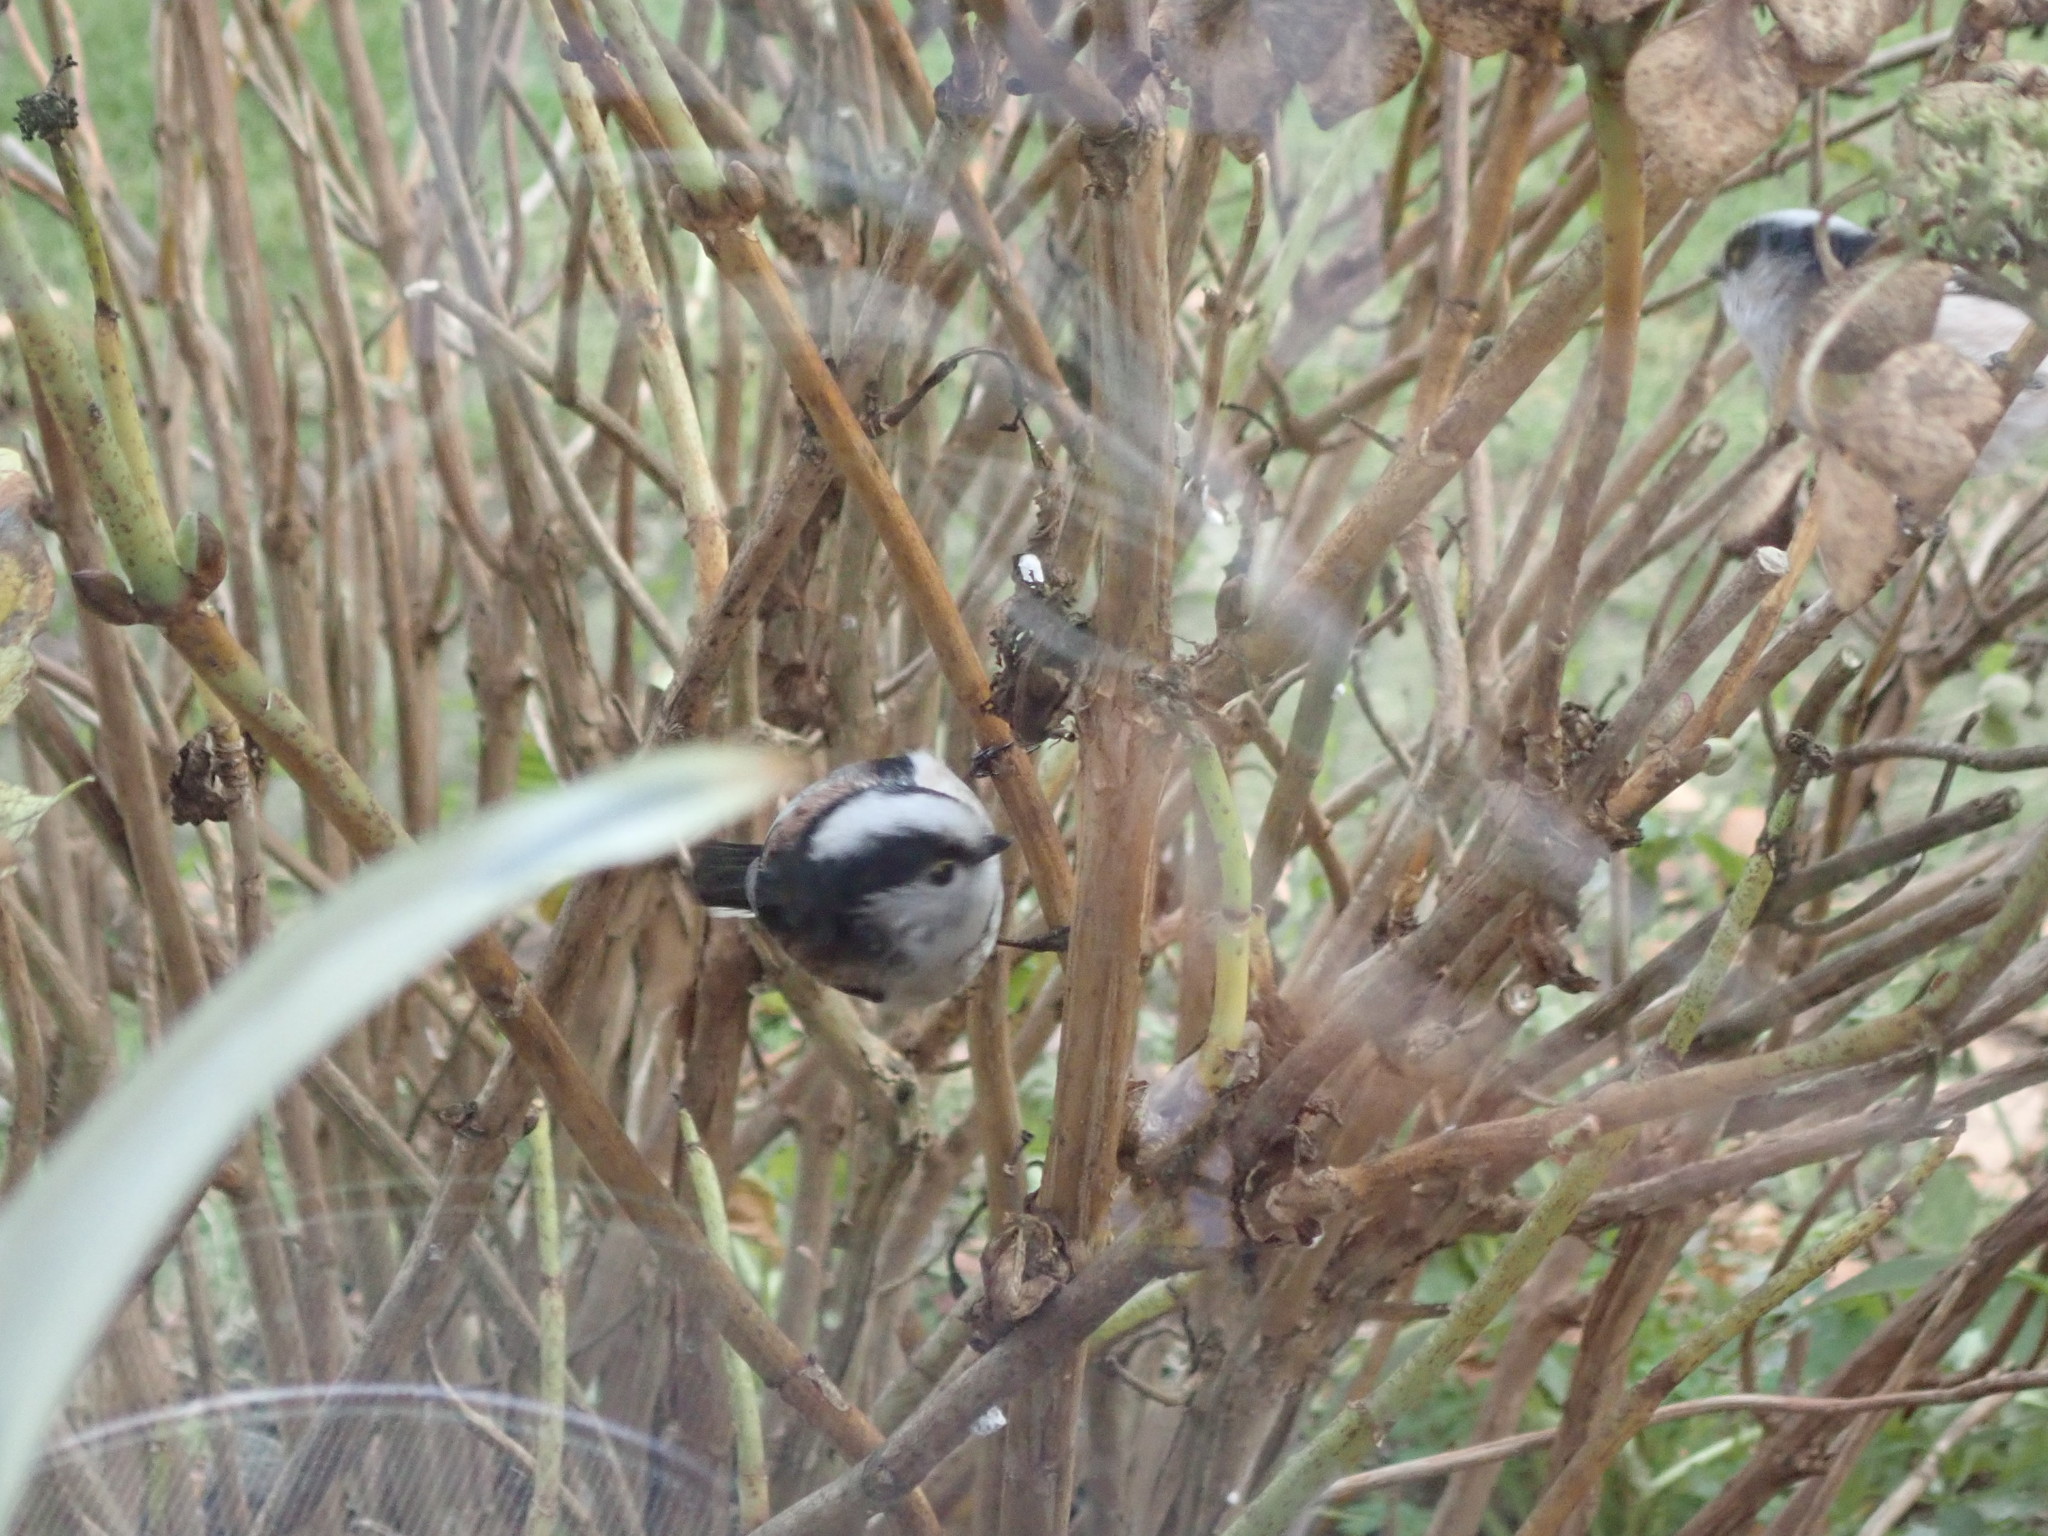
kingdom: Animalia
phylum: Chordata
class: Aves
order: Passeriformes
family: Aegithalidae
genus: Aegithalos
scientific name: Aegithalos caudatus
